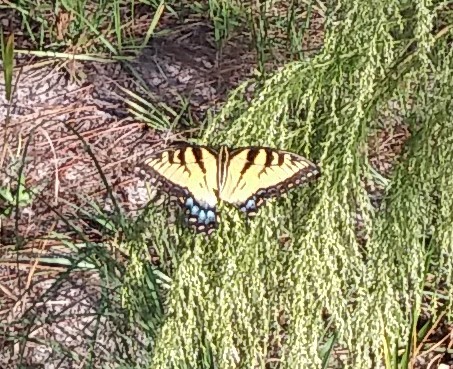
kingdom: Animalia
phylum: Arthropoda
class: Insecta
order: Lepidoptera
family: Papilionidae
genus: Papilio
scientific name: Papilio glaucus
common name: Tiger swallowtail
